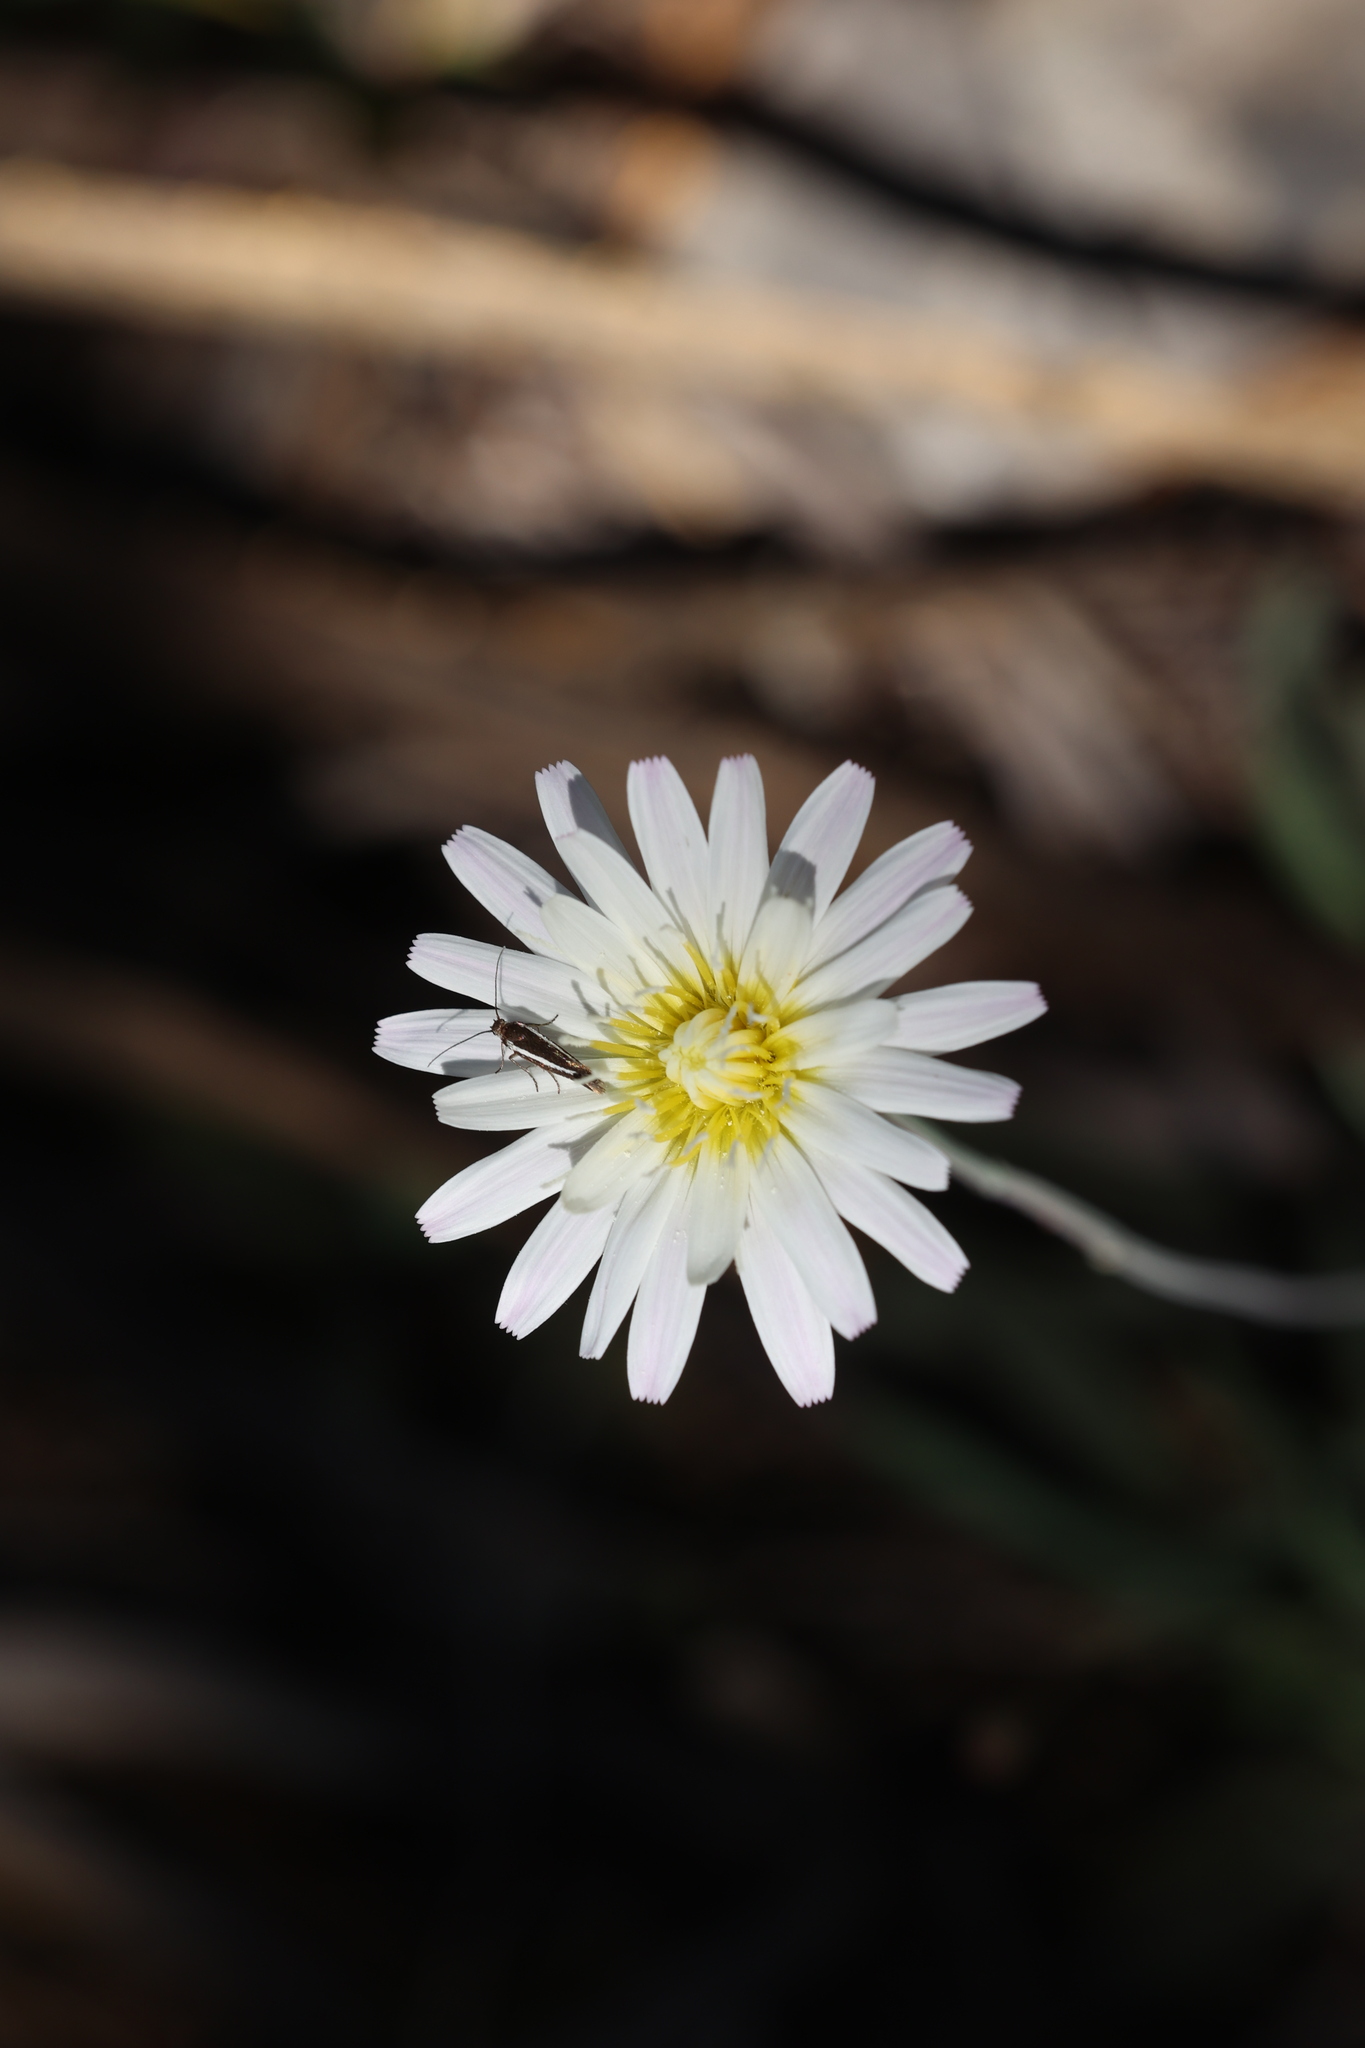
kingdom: Plantae
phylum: Tracheophyta
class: Magnoliopsida
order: Asterales
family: Asteraceae
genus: Pinaropappus
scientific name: Pinaropappus roseus
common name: Rock-lettuce
